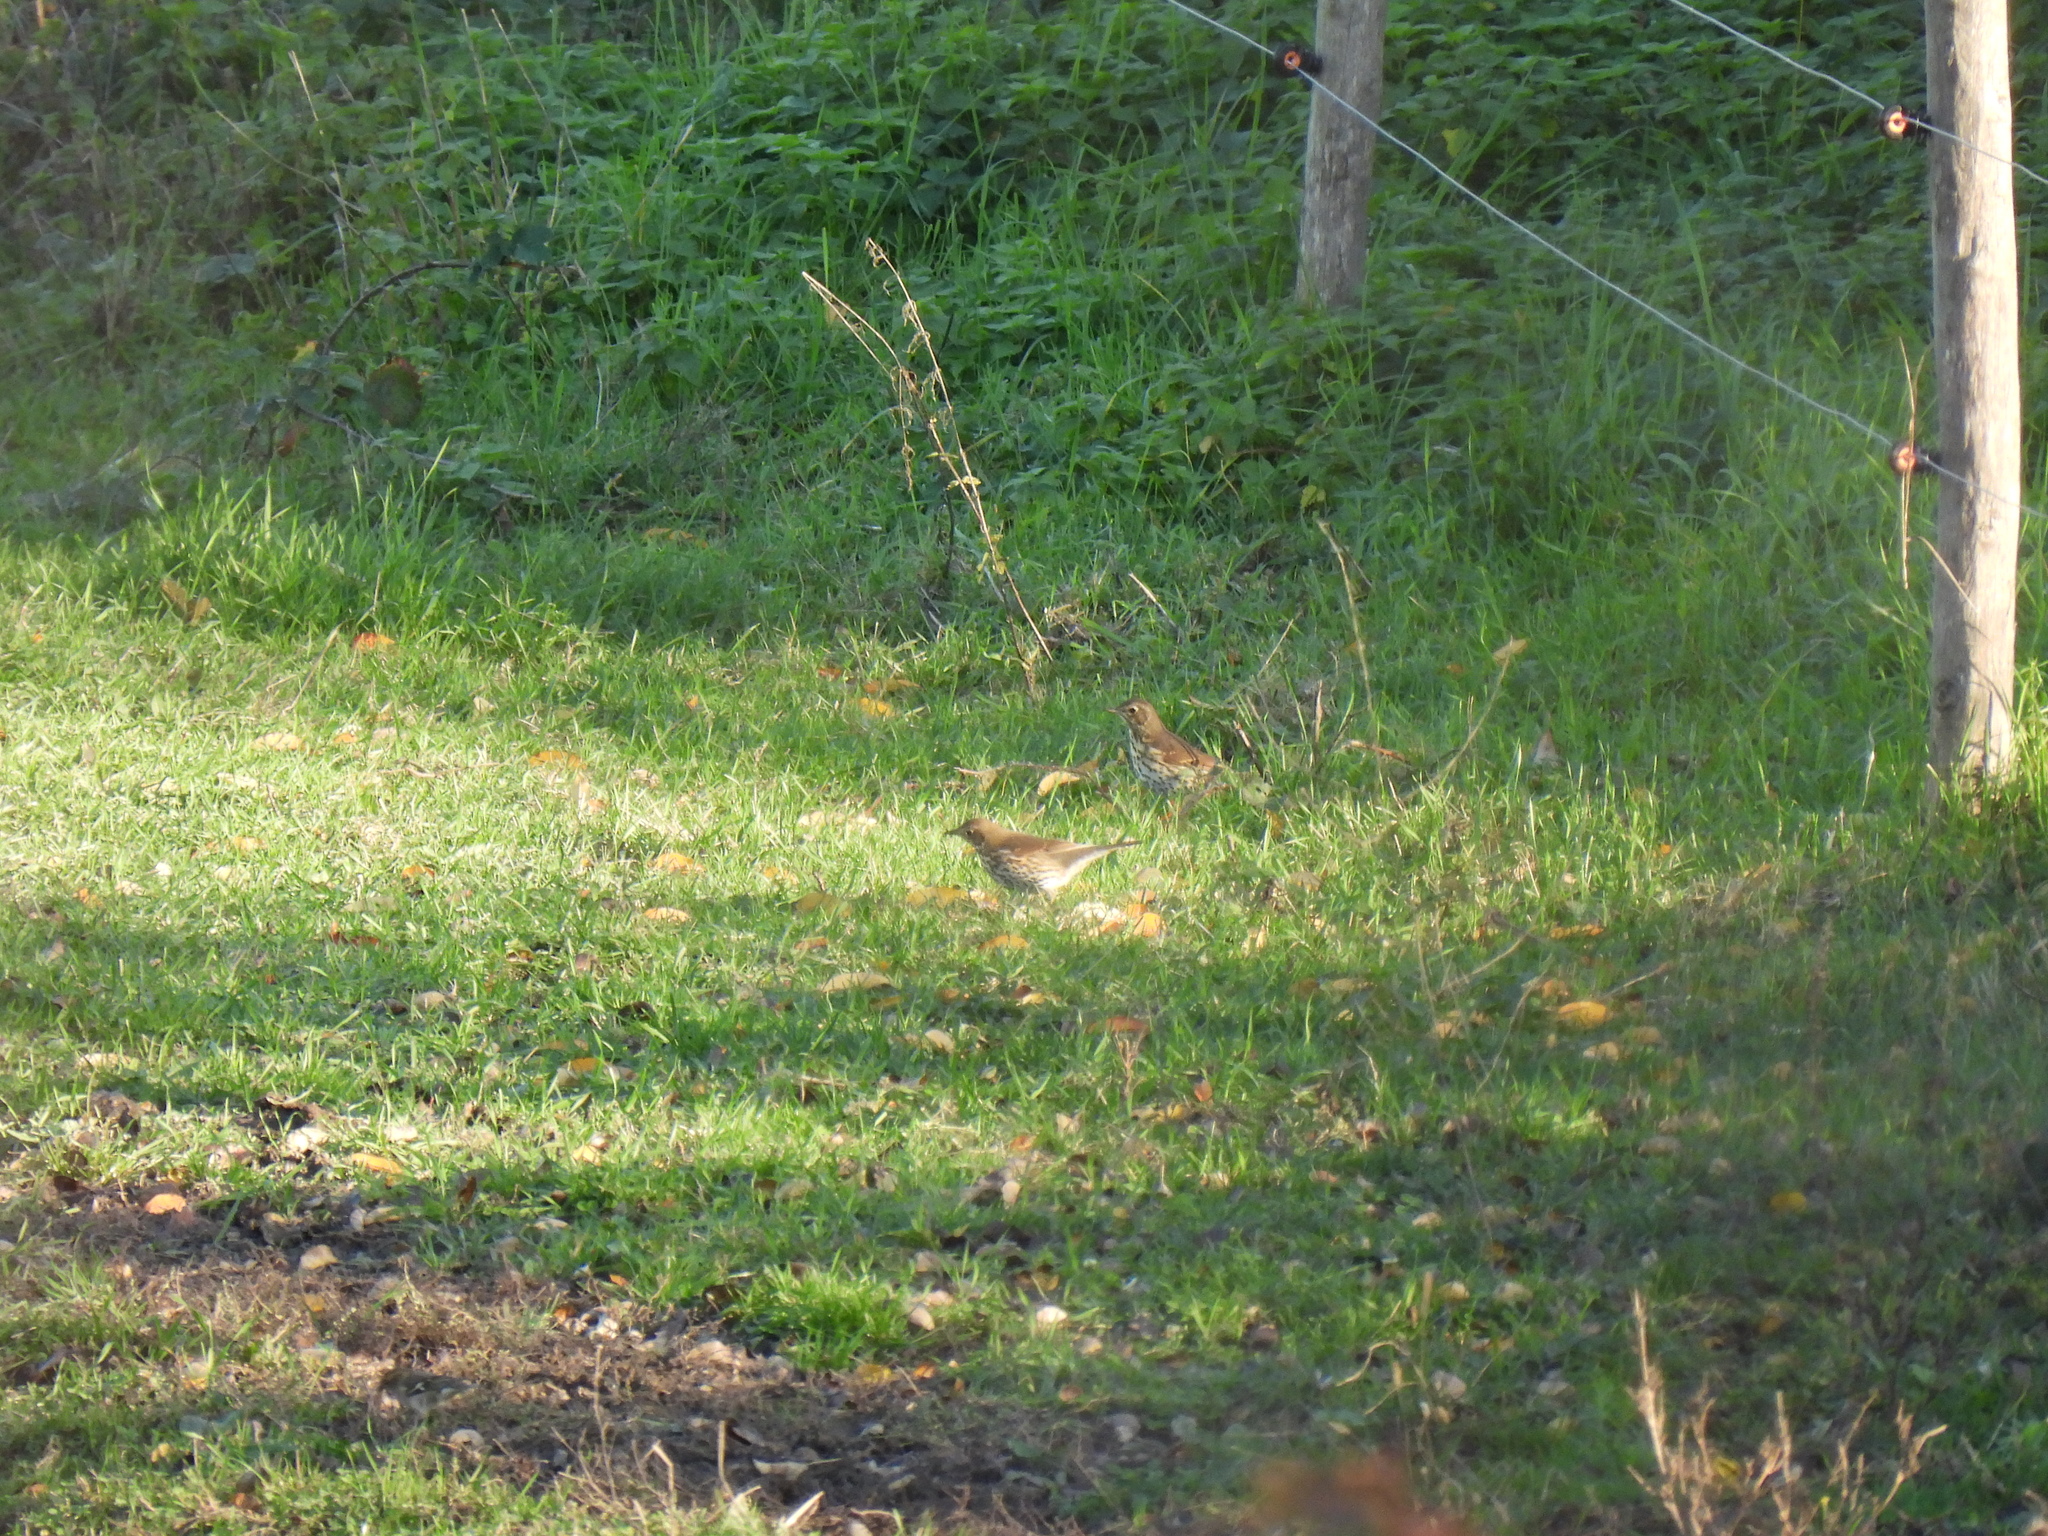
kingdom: Animalia
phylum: Chordata
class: Aves
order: Passeriformes
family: Turdidae
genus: Turdus
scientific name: Turdus philomelos
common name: Song thrush
